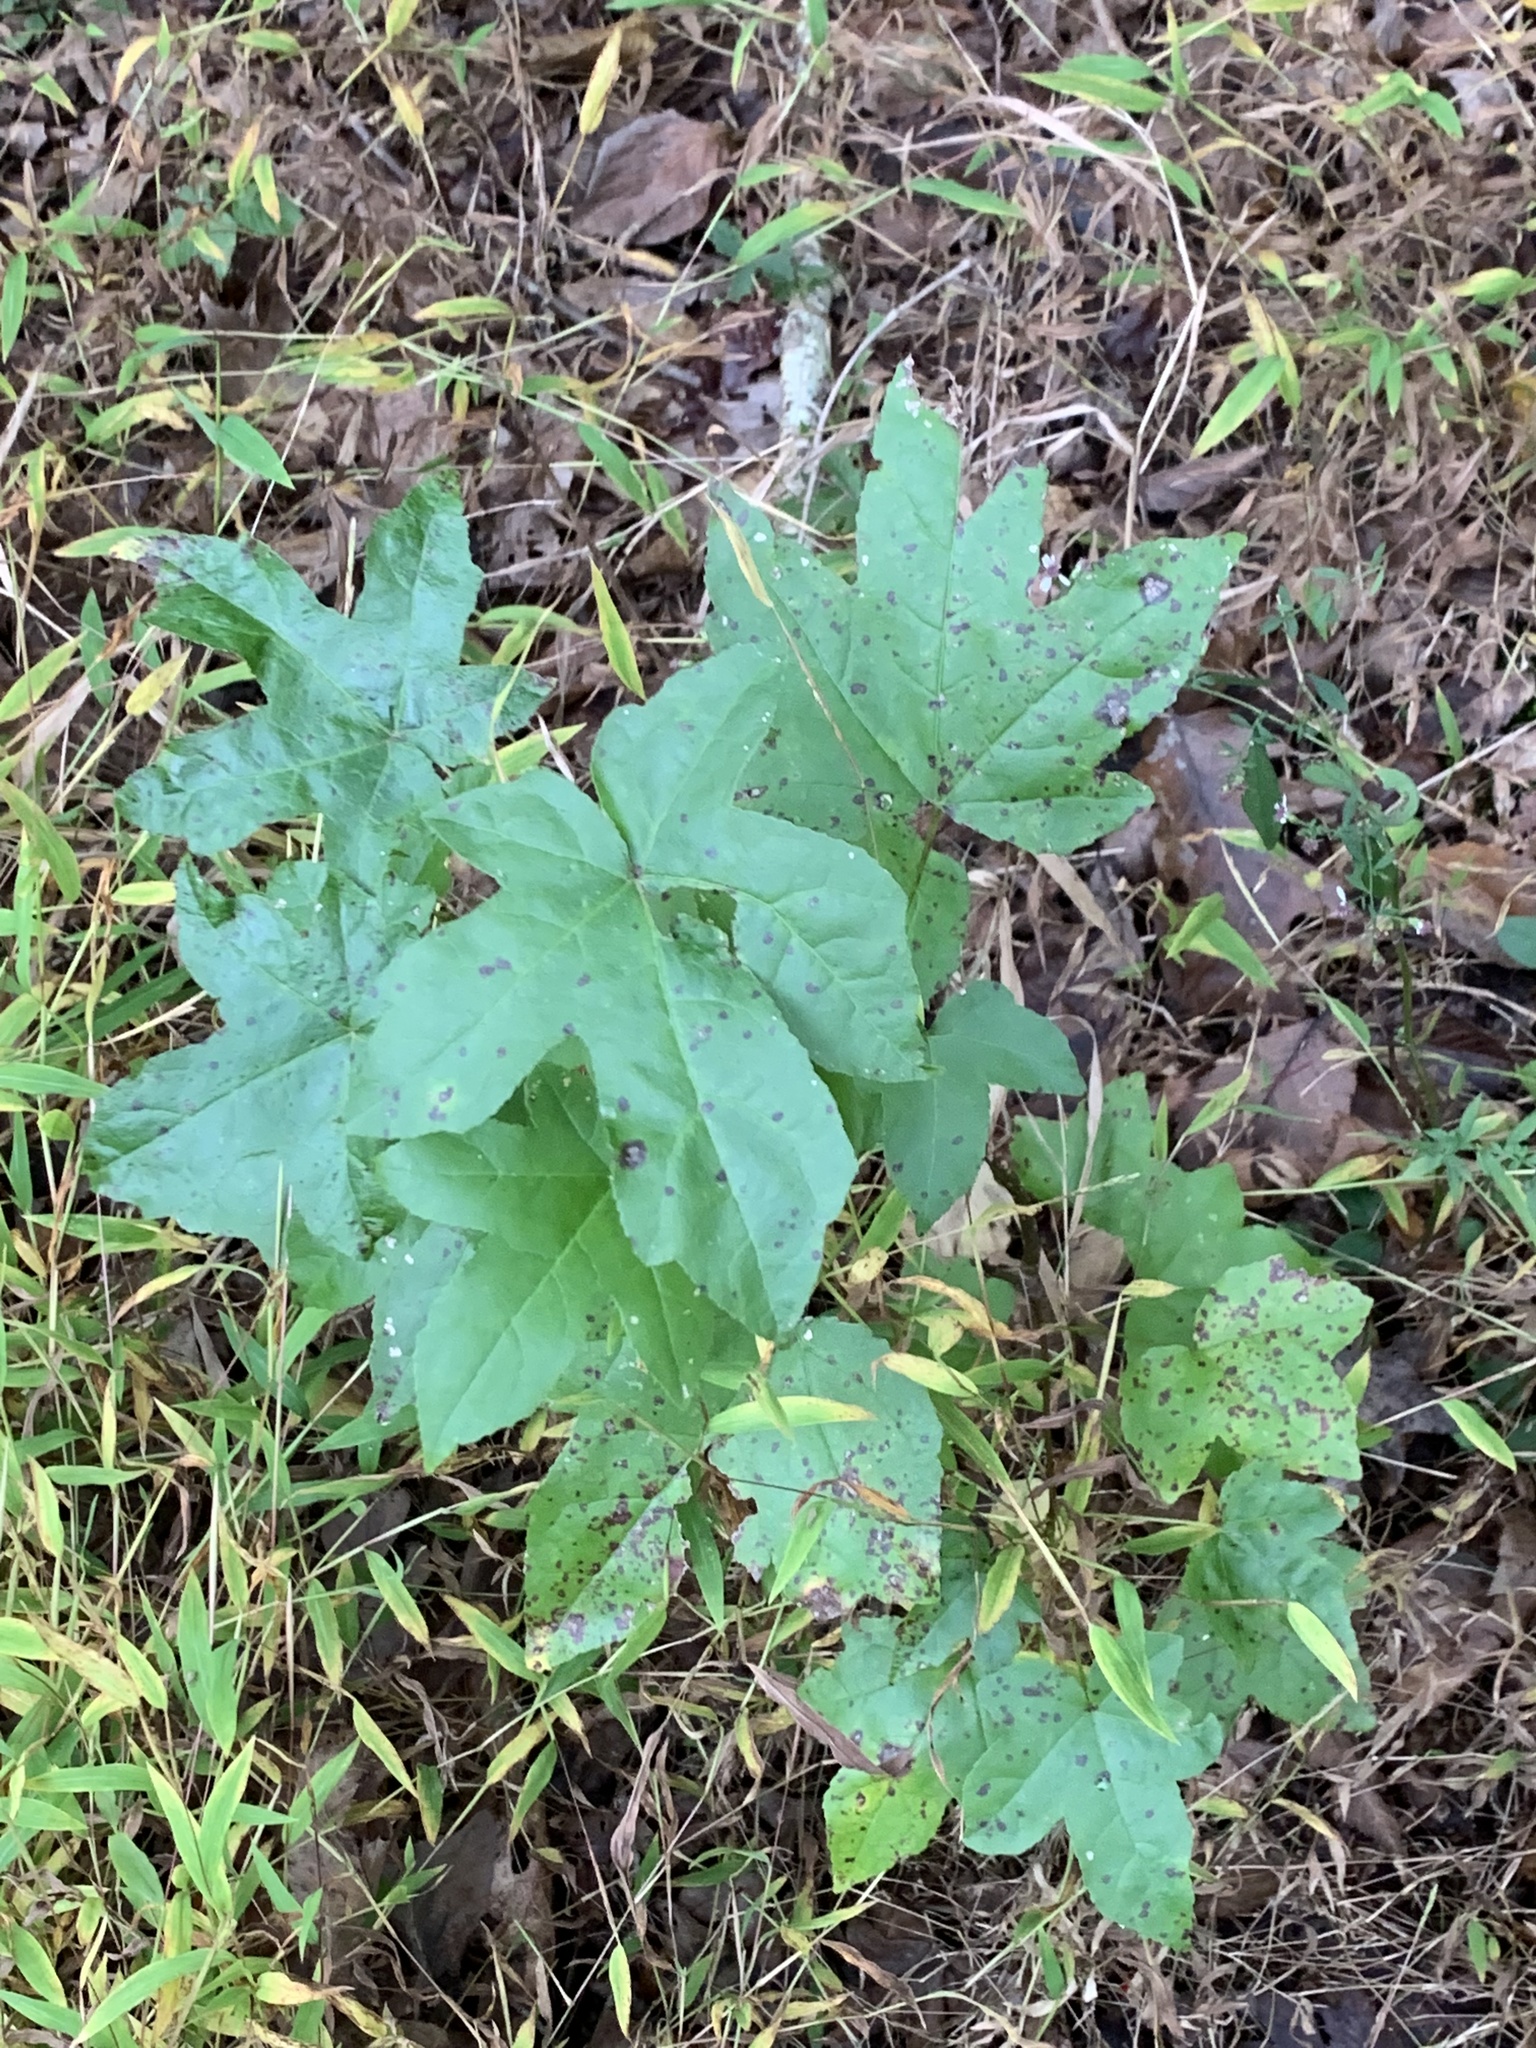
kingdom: Plantae
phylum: Tracheophyta
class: Magnoliopsida
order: Saxifragales
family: Altingiaceae
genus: Liquidambar
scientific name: Liquidambar styraciflua
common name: Sweet gum
